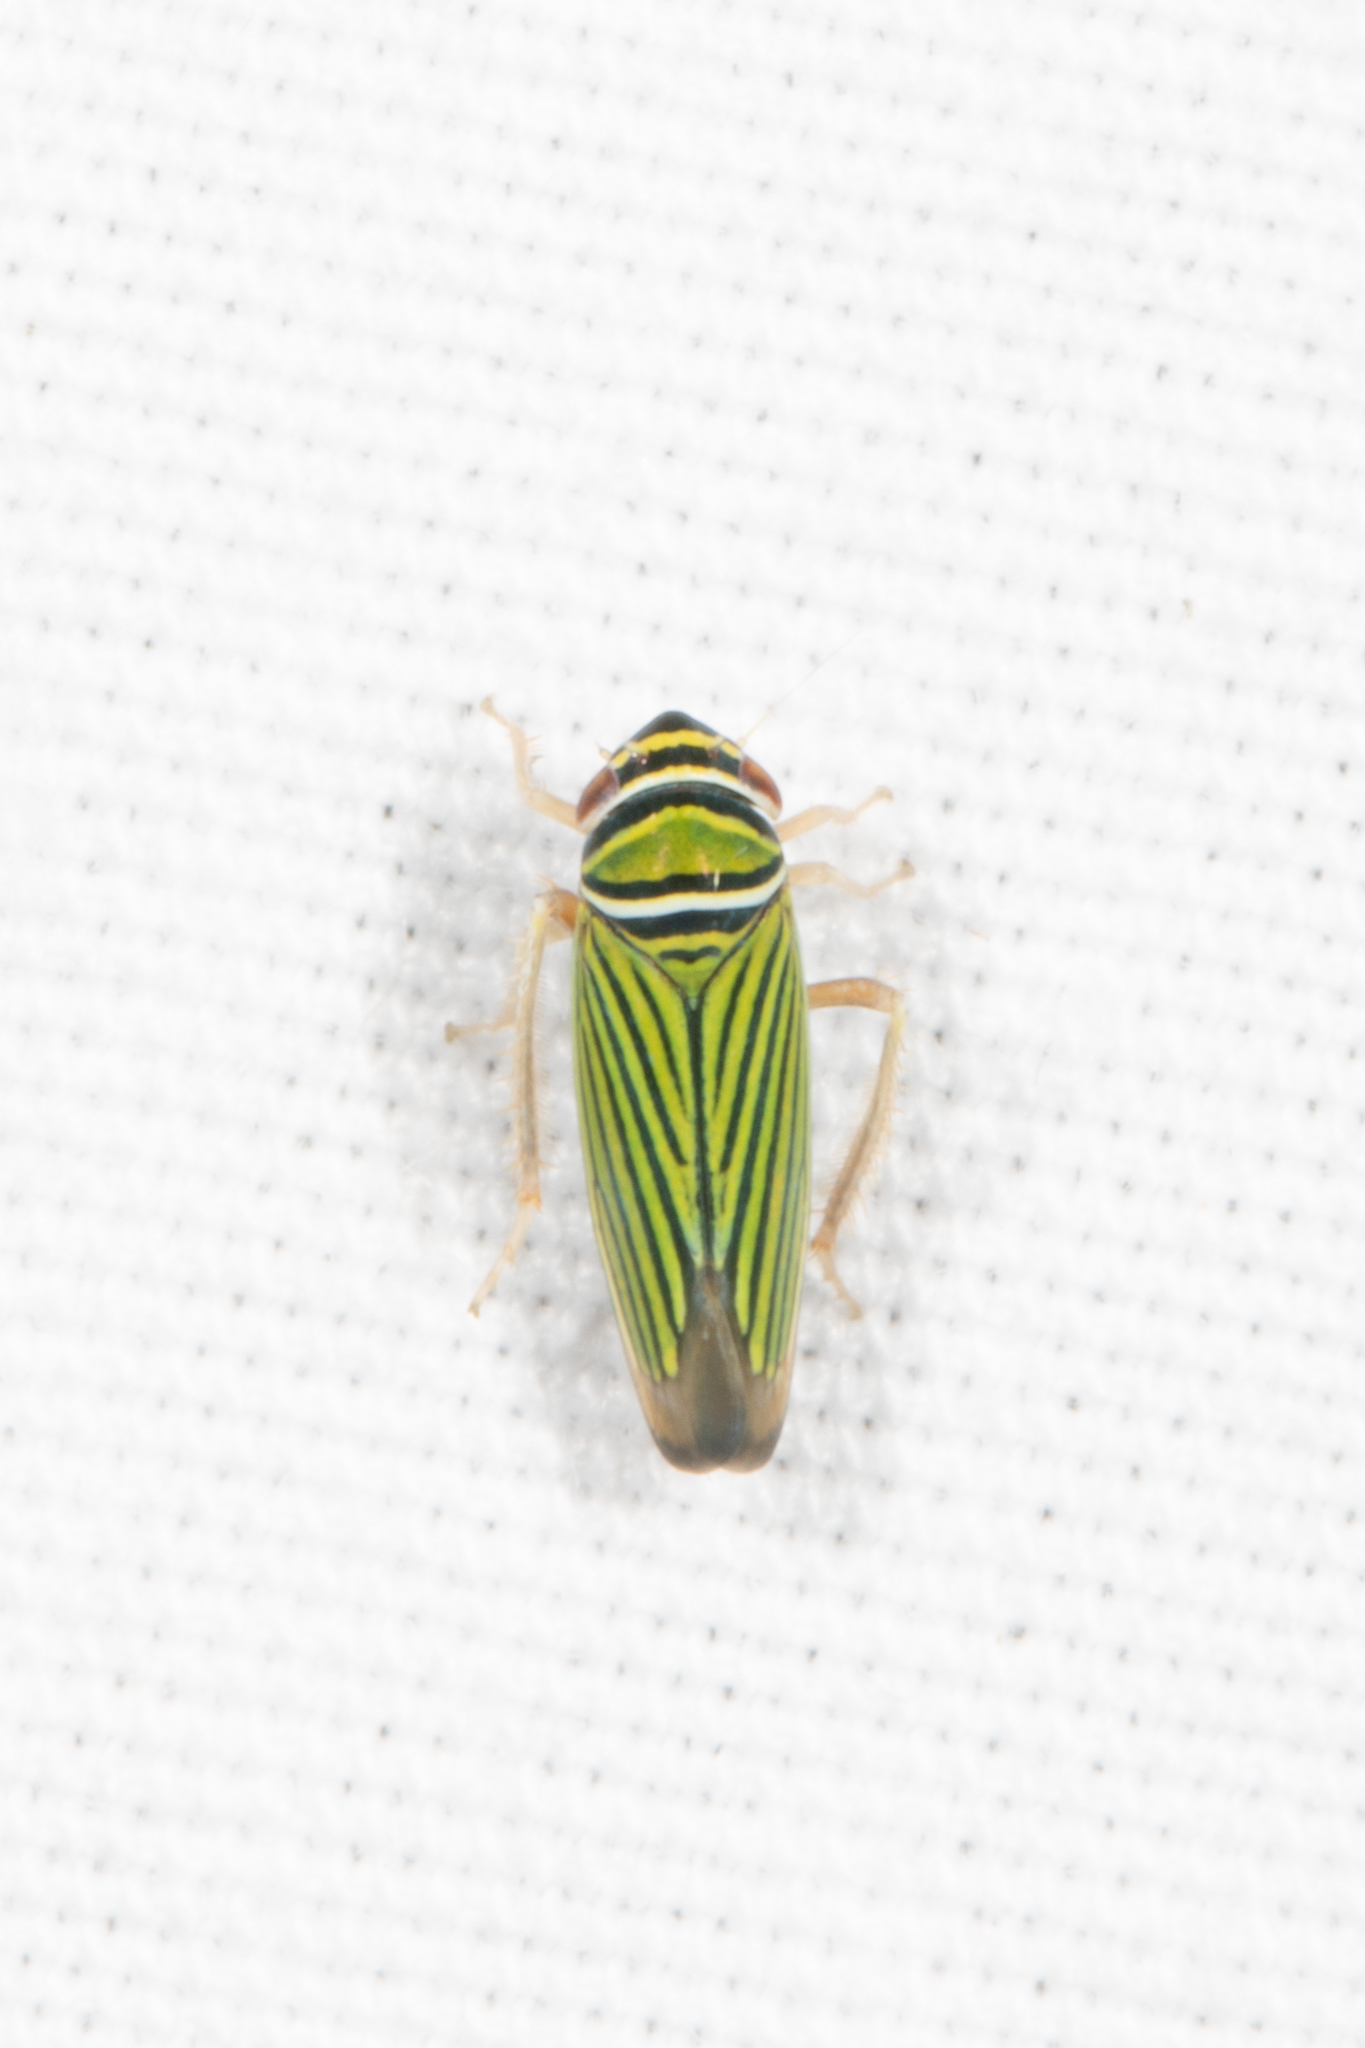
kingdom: Animalia
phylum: Arthropoda
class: Insecta
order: Hemiptera
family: Cicadellidae
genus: Tylozygus
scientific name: Tylozygus bifidus
